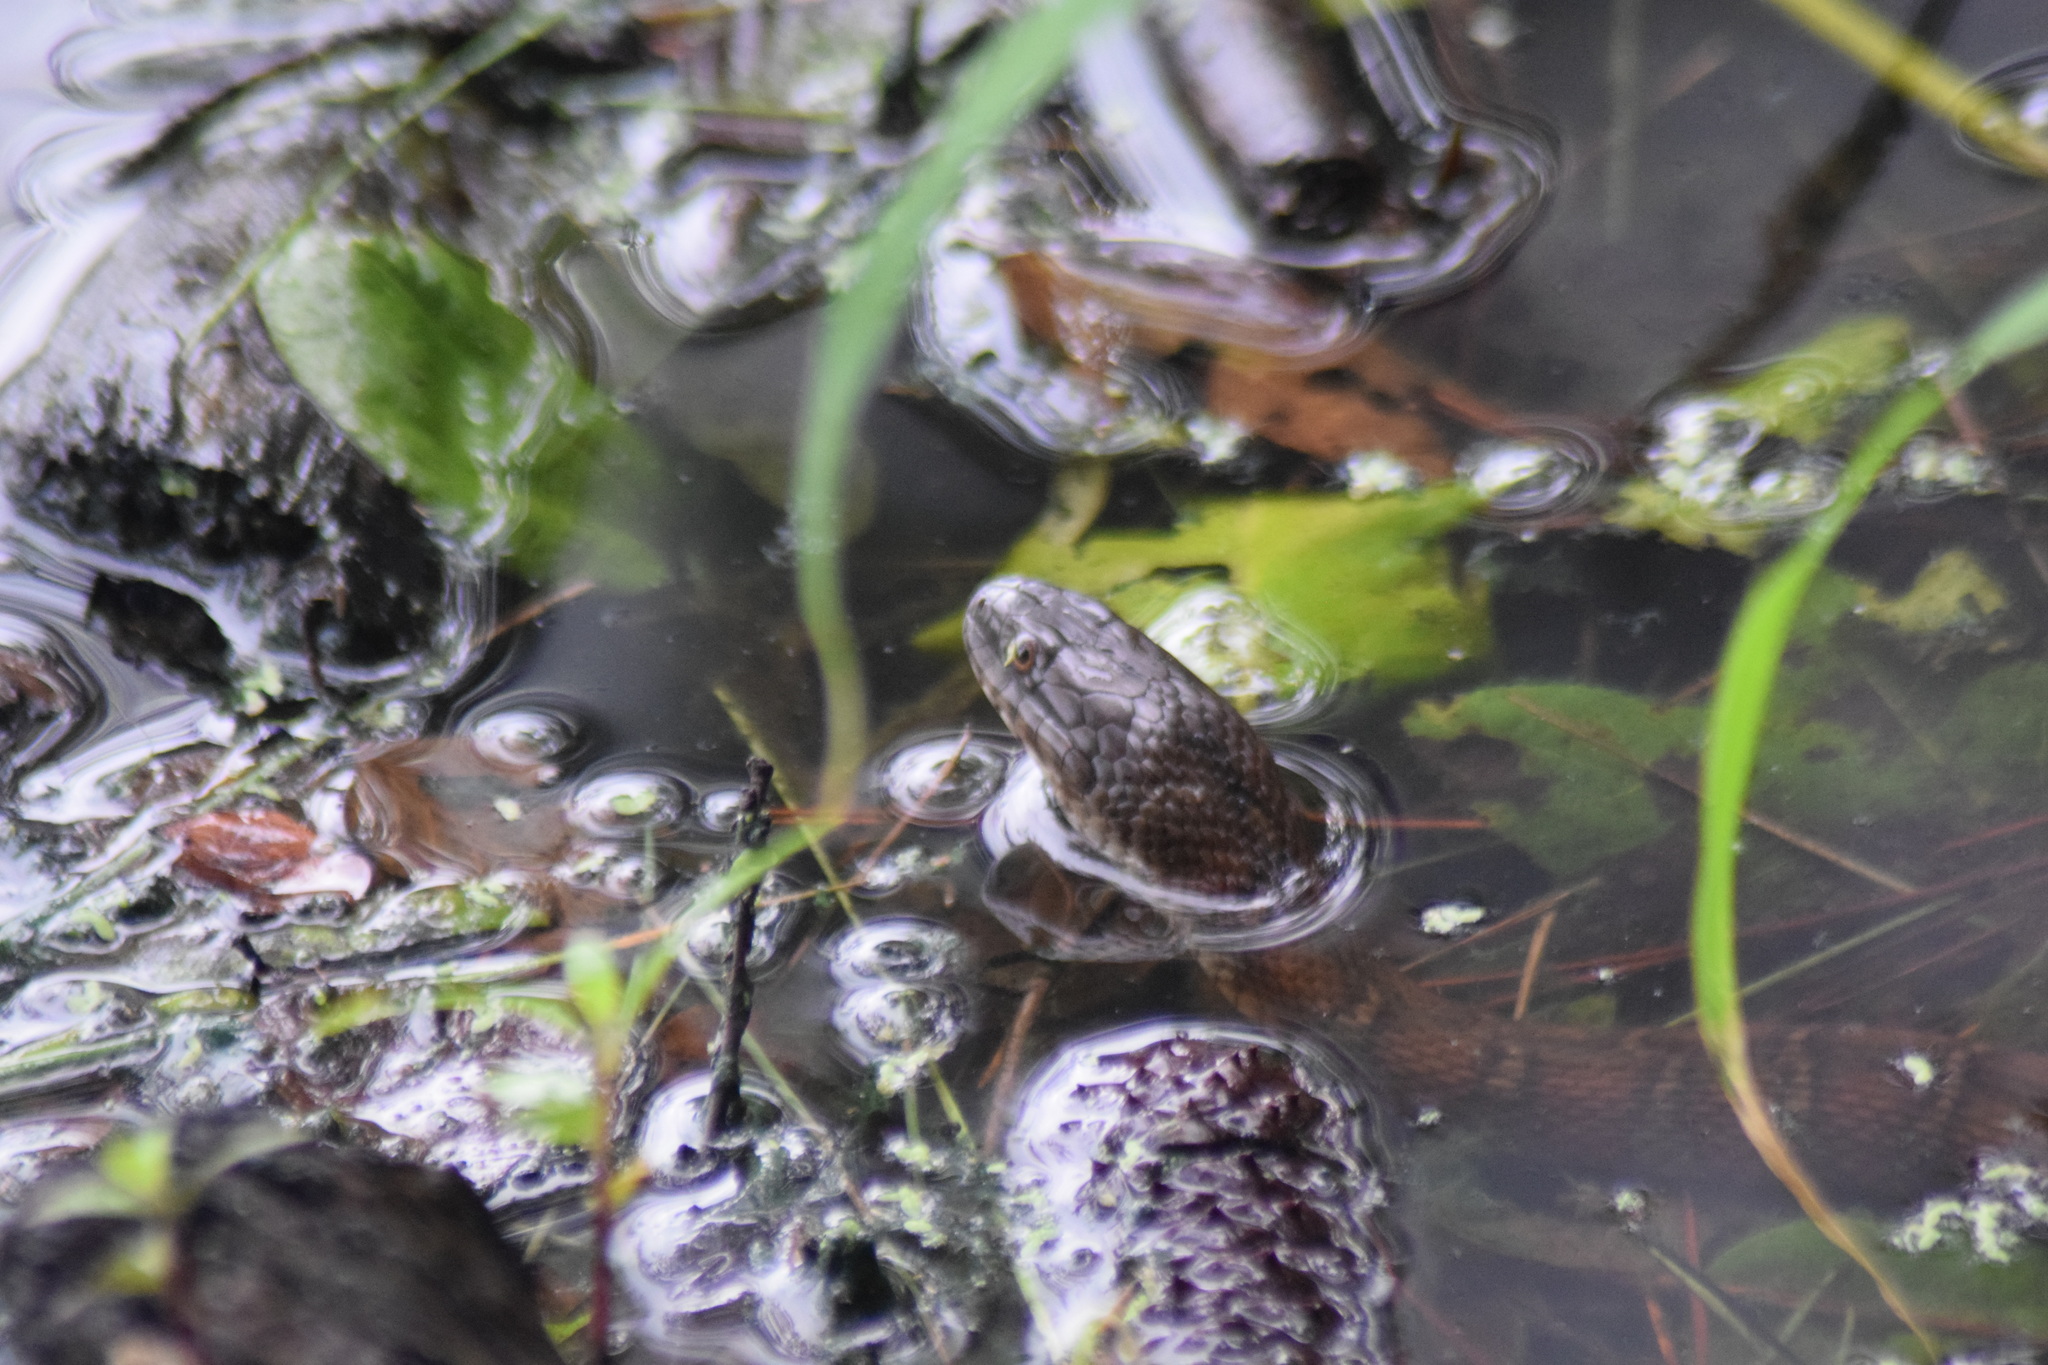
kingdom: Animalia
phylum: Chordata
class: Squamata
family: Colubridae
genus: Nerodia
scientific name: Nerodia sipedon
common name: Northern water snake
